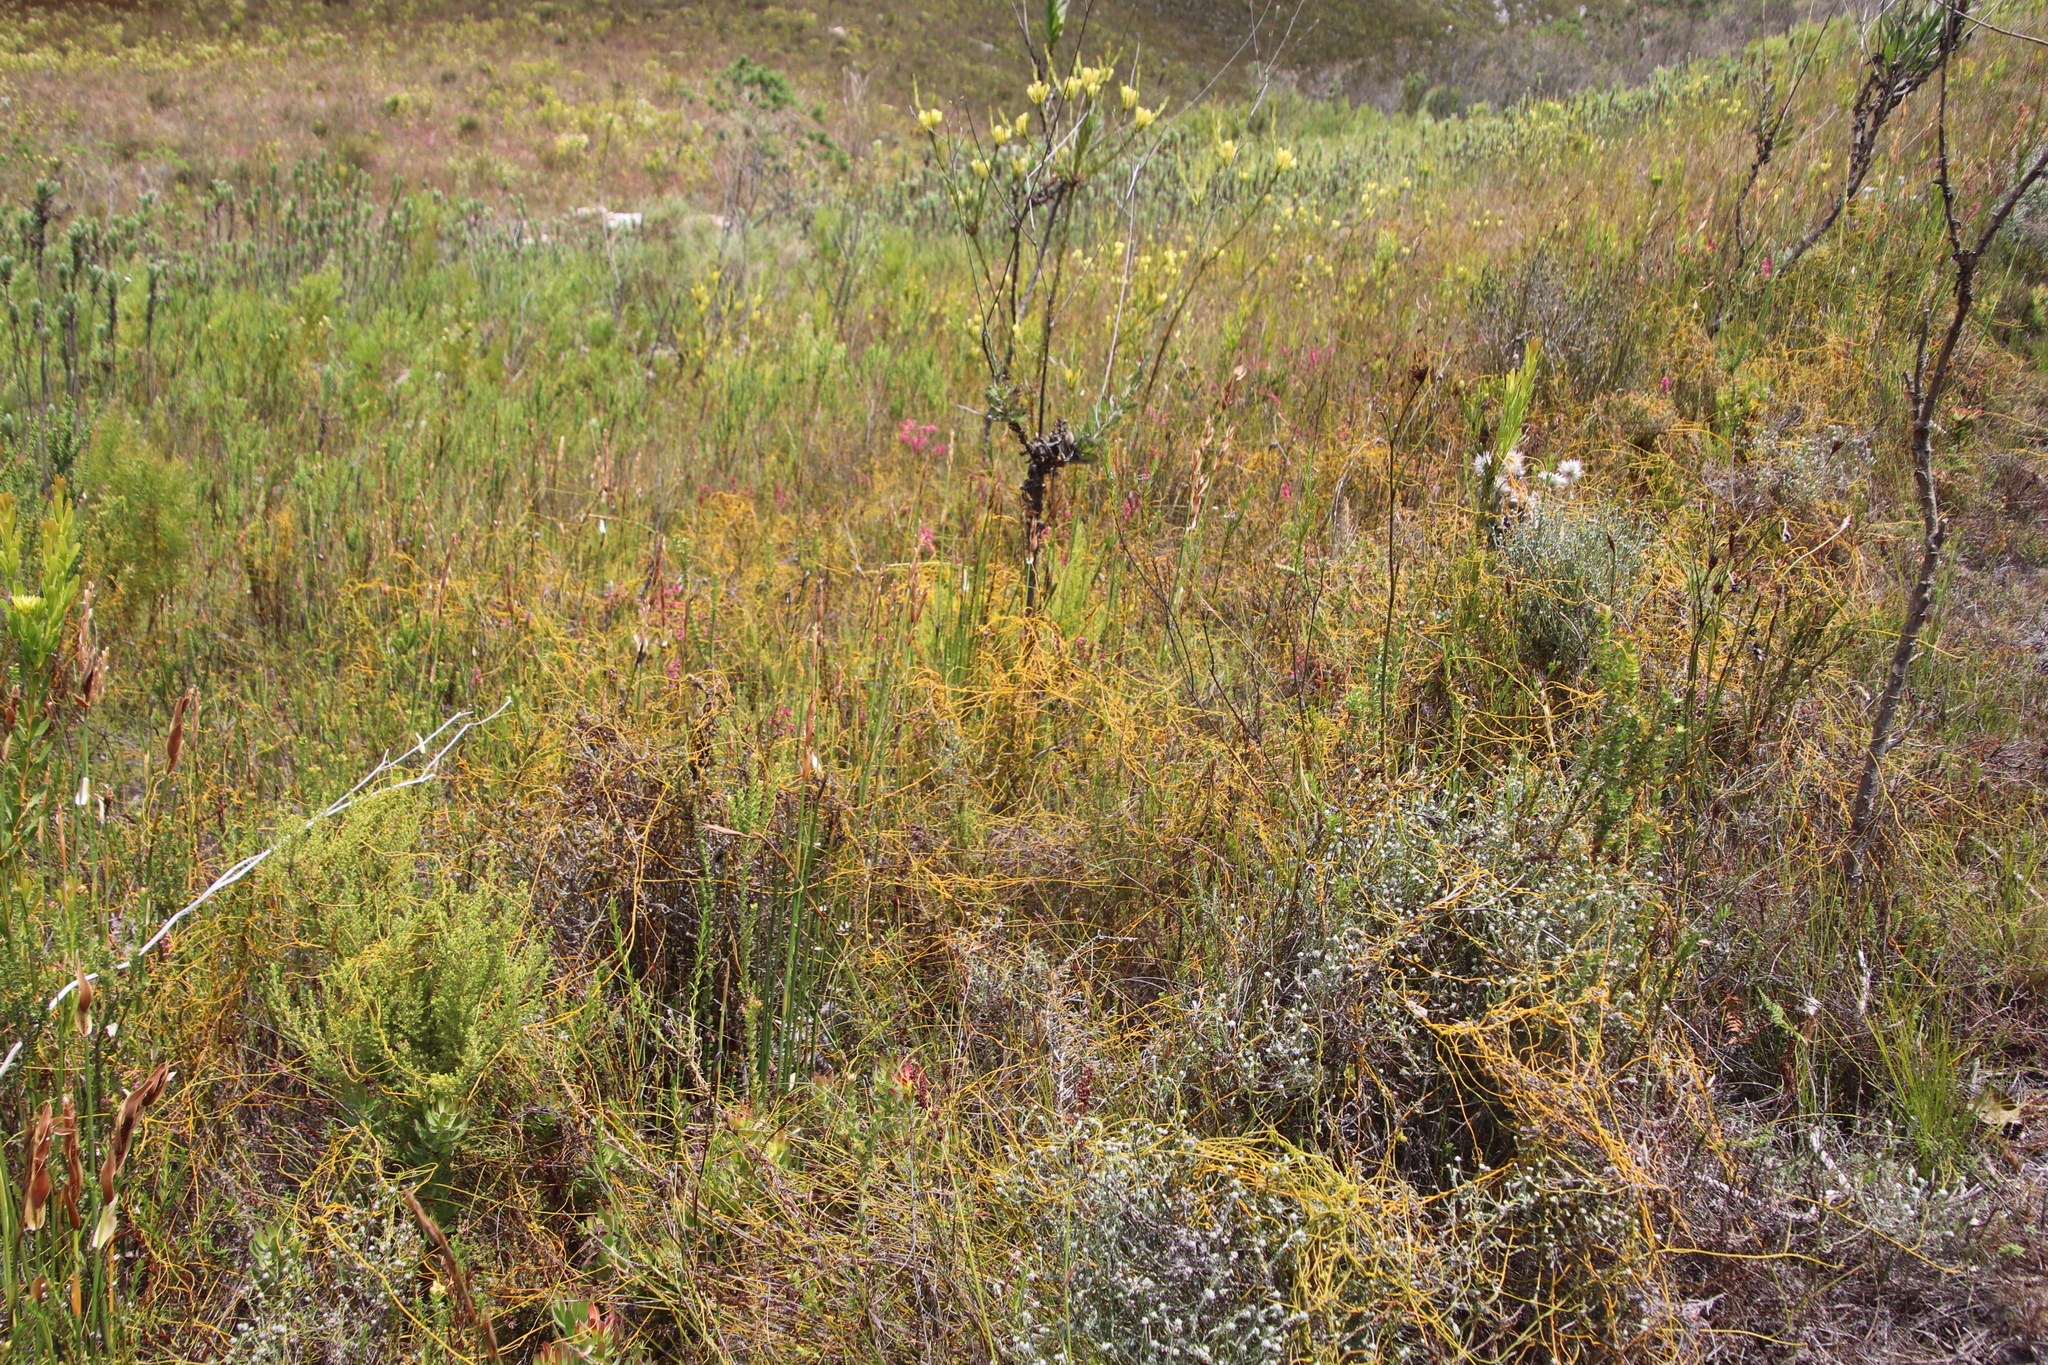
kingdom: Plantae
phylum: Tracheophyta
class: Magnoliopsida
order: Laurales
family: Lauraceae
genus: Cassytha
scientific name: Cassytha ciliolata
